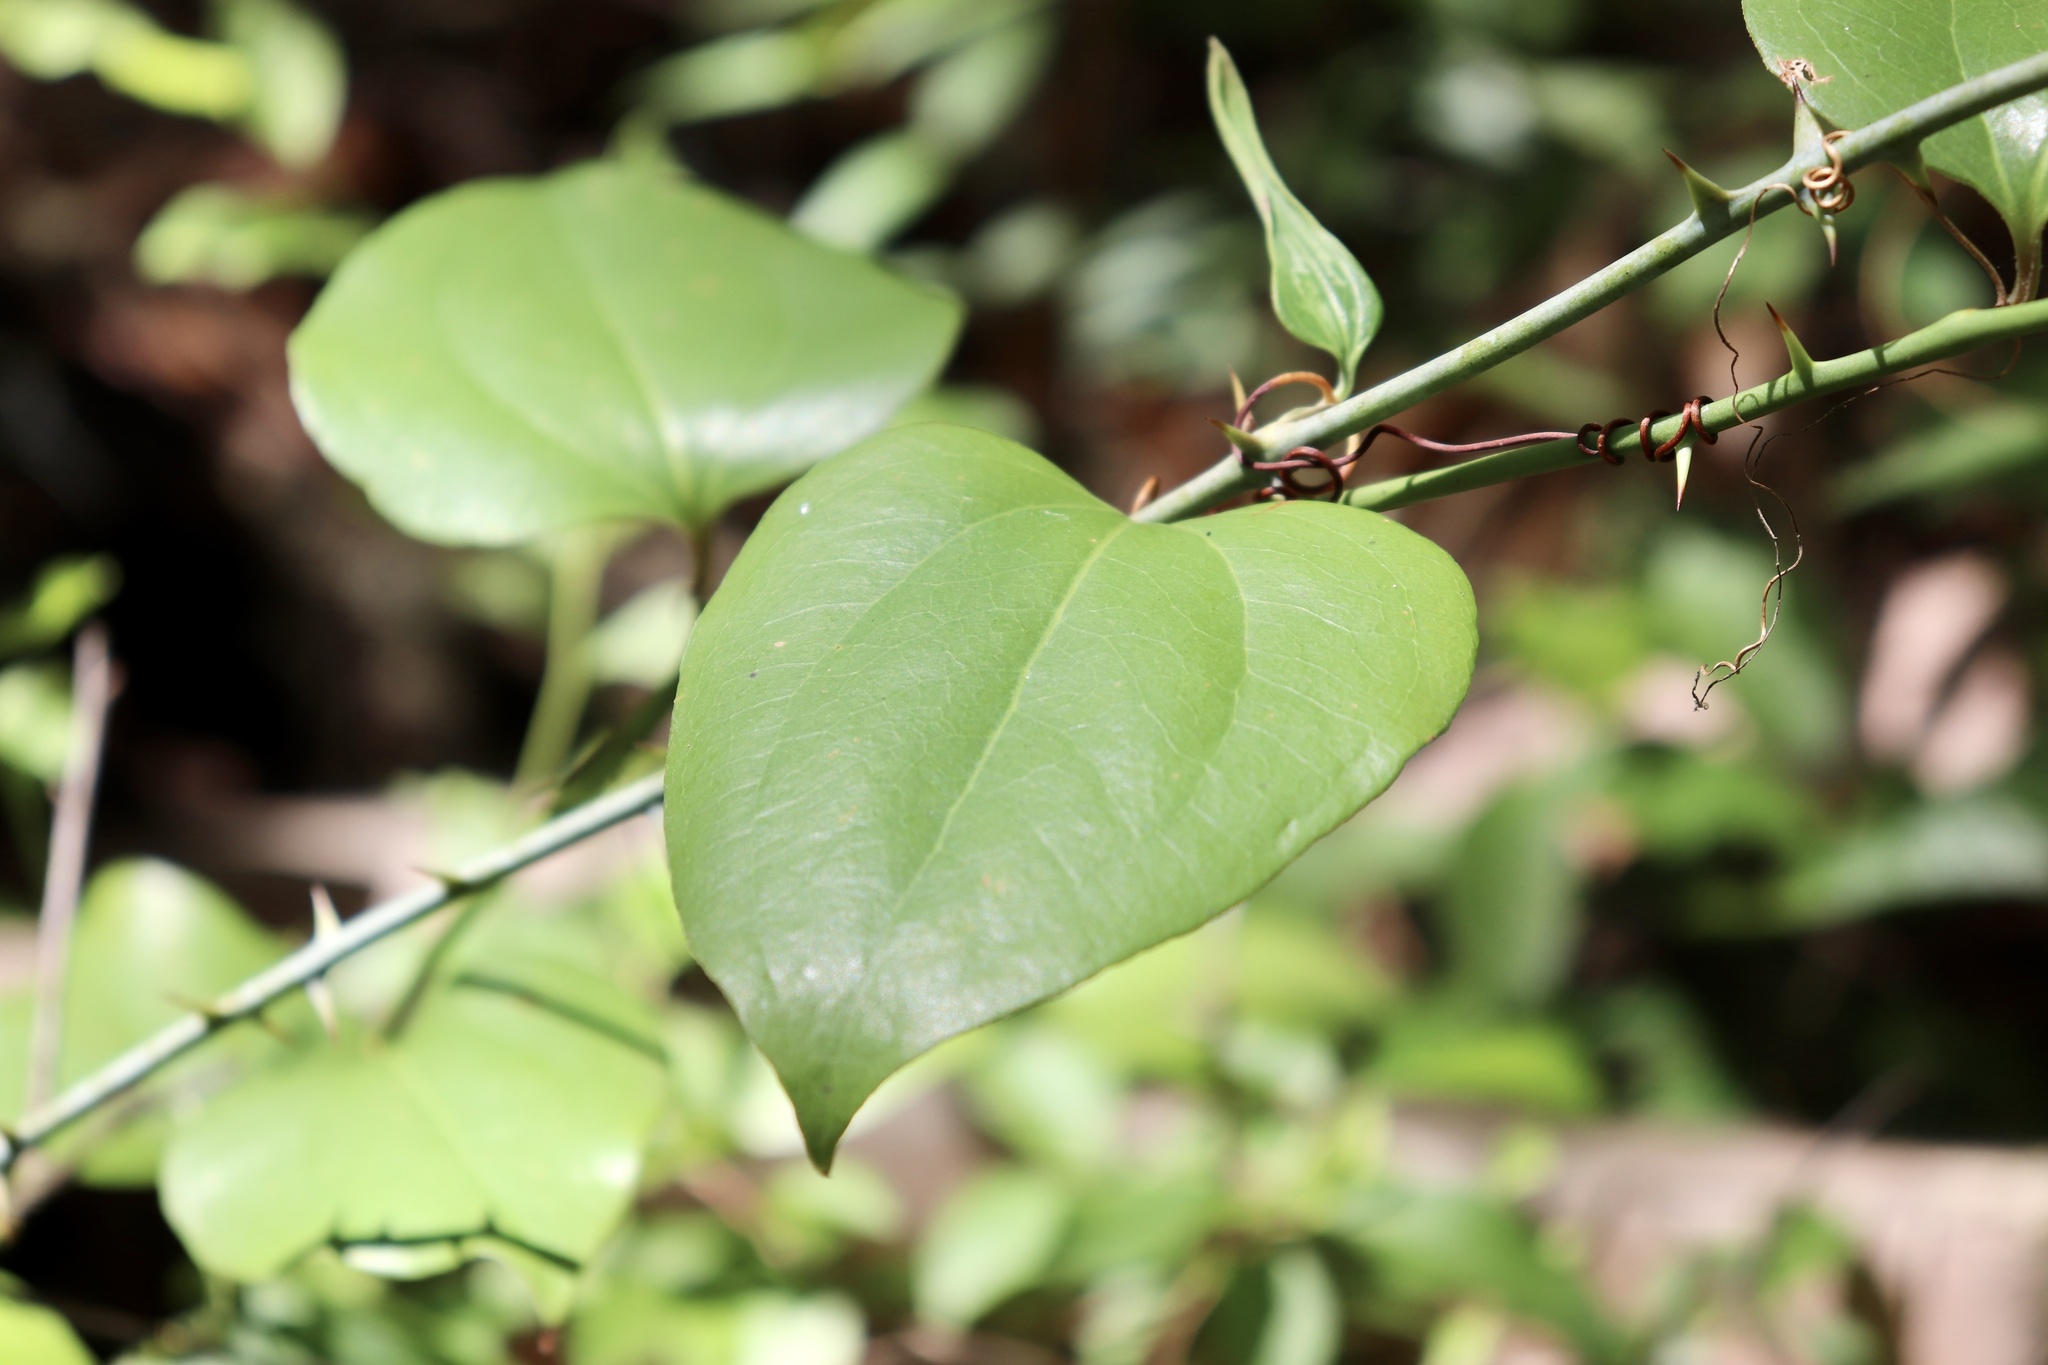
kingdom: Plantae
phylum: Tracheophyta
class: Liliopsida
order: Liliales
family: Smilacaceae
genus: Smilax
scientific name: Smilax rotundifolia
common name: Bullbriar
